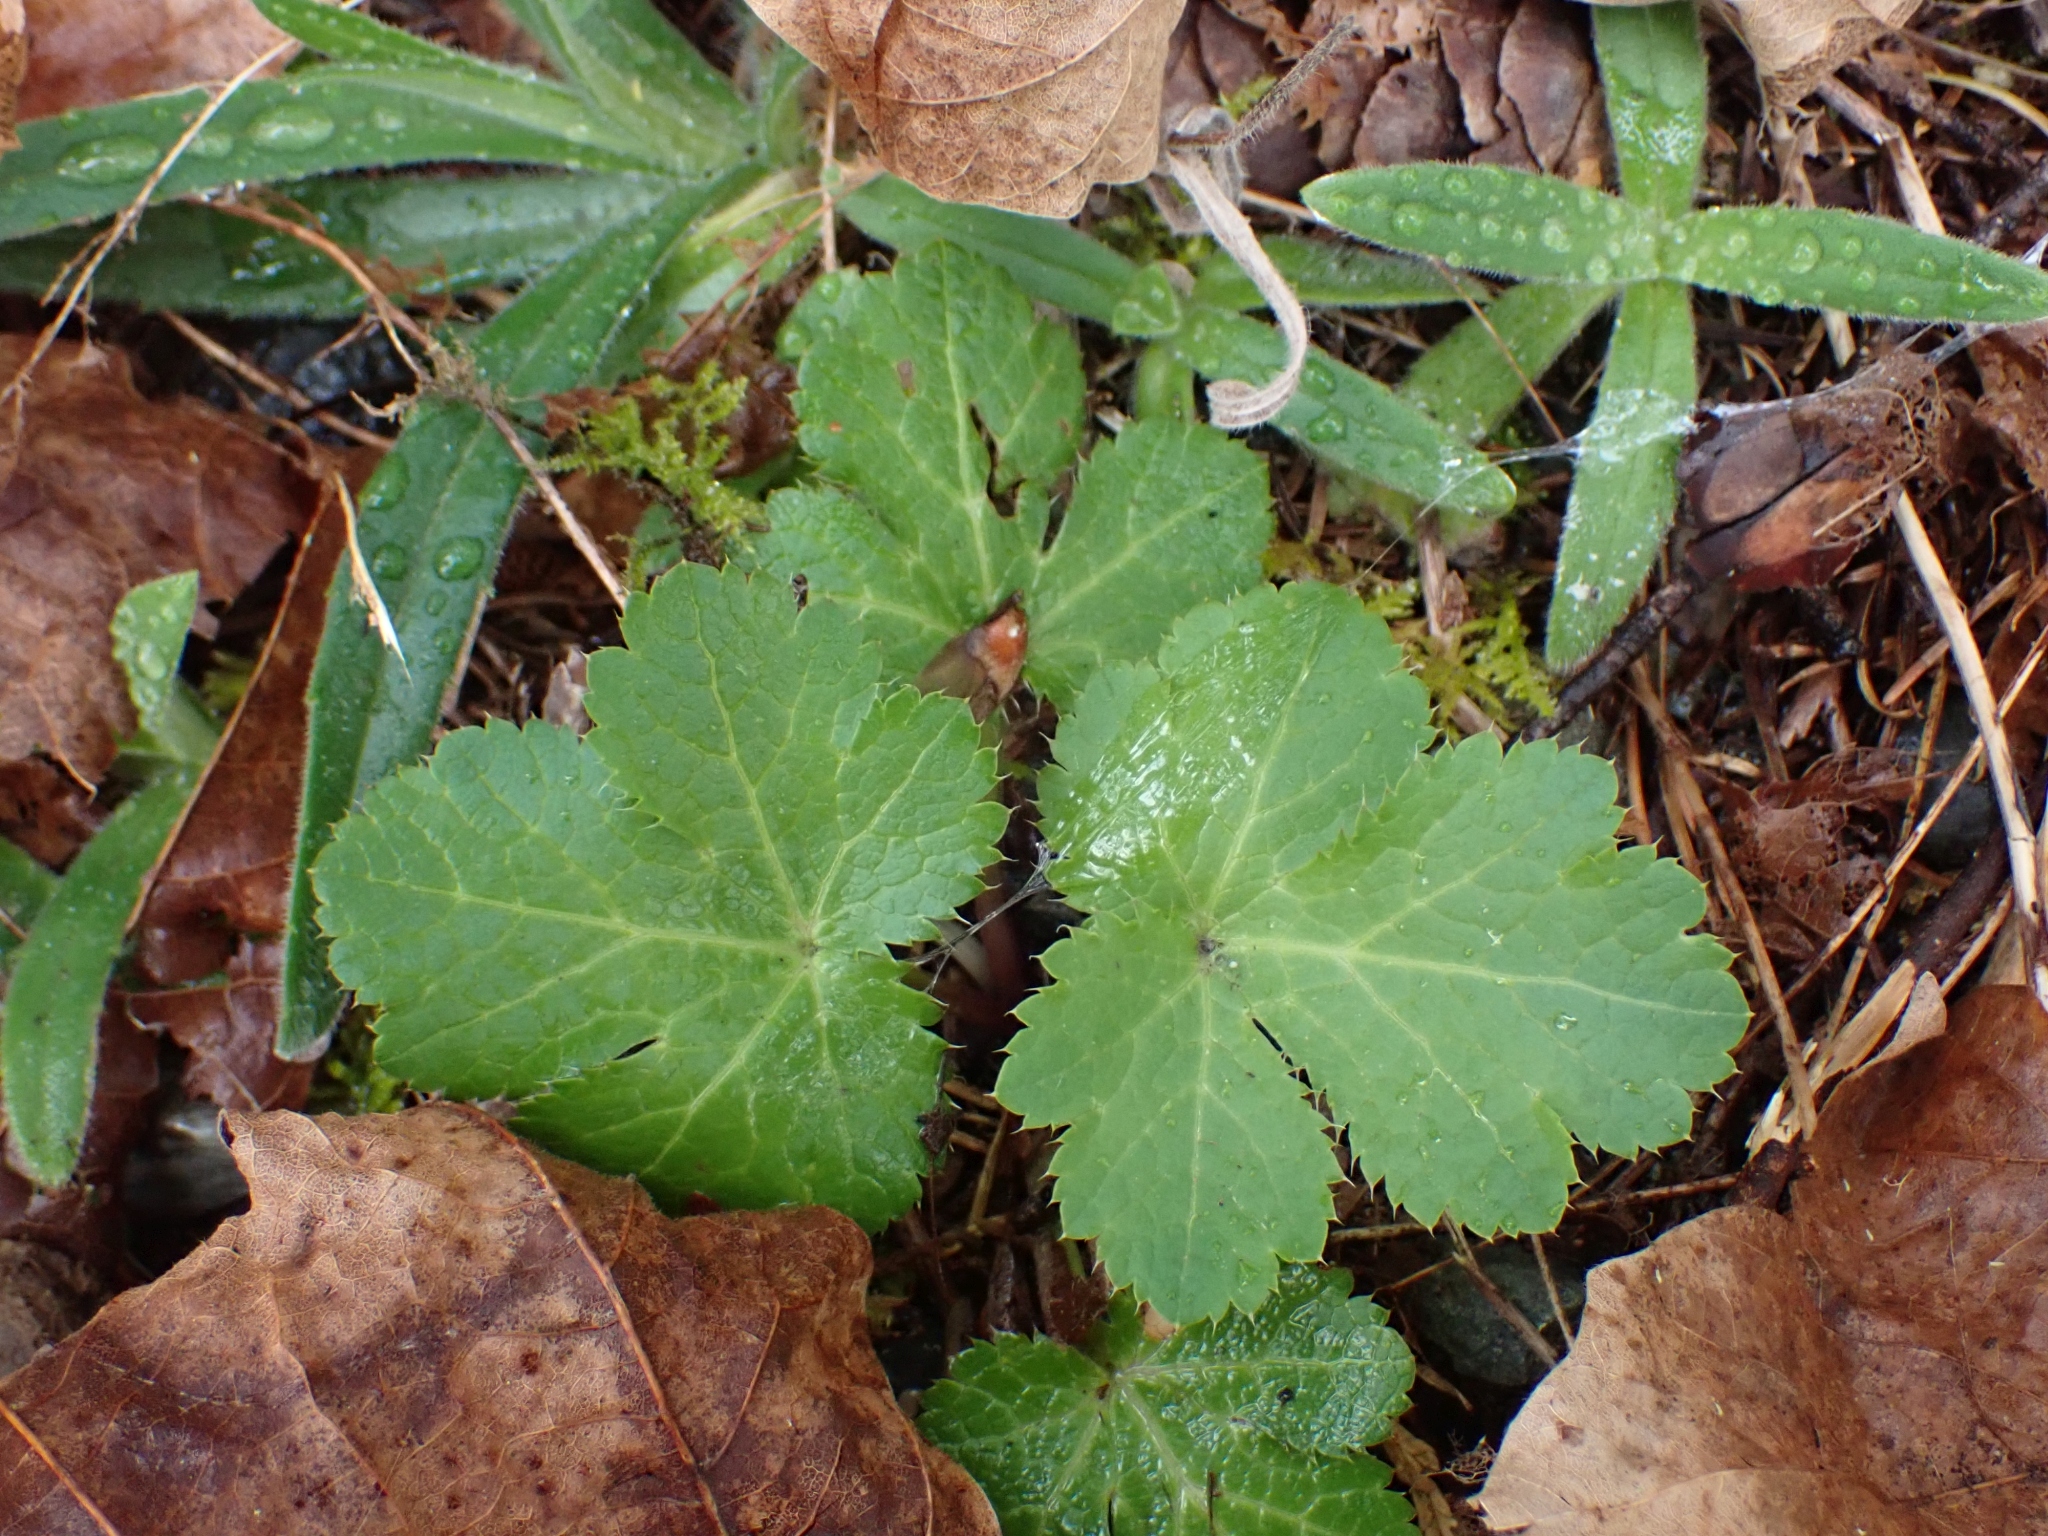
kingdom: Plantae
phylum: Tracheophyta
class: Magnoliopsida
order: Apiales
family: Apiaceae
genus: Sanicula
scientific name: Sanicula crassicaulis
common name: Western snakeroot
